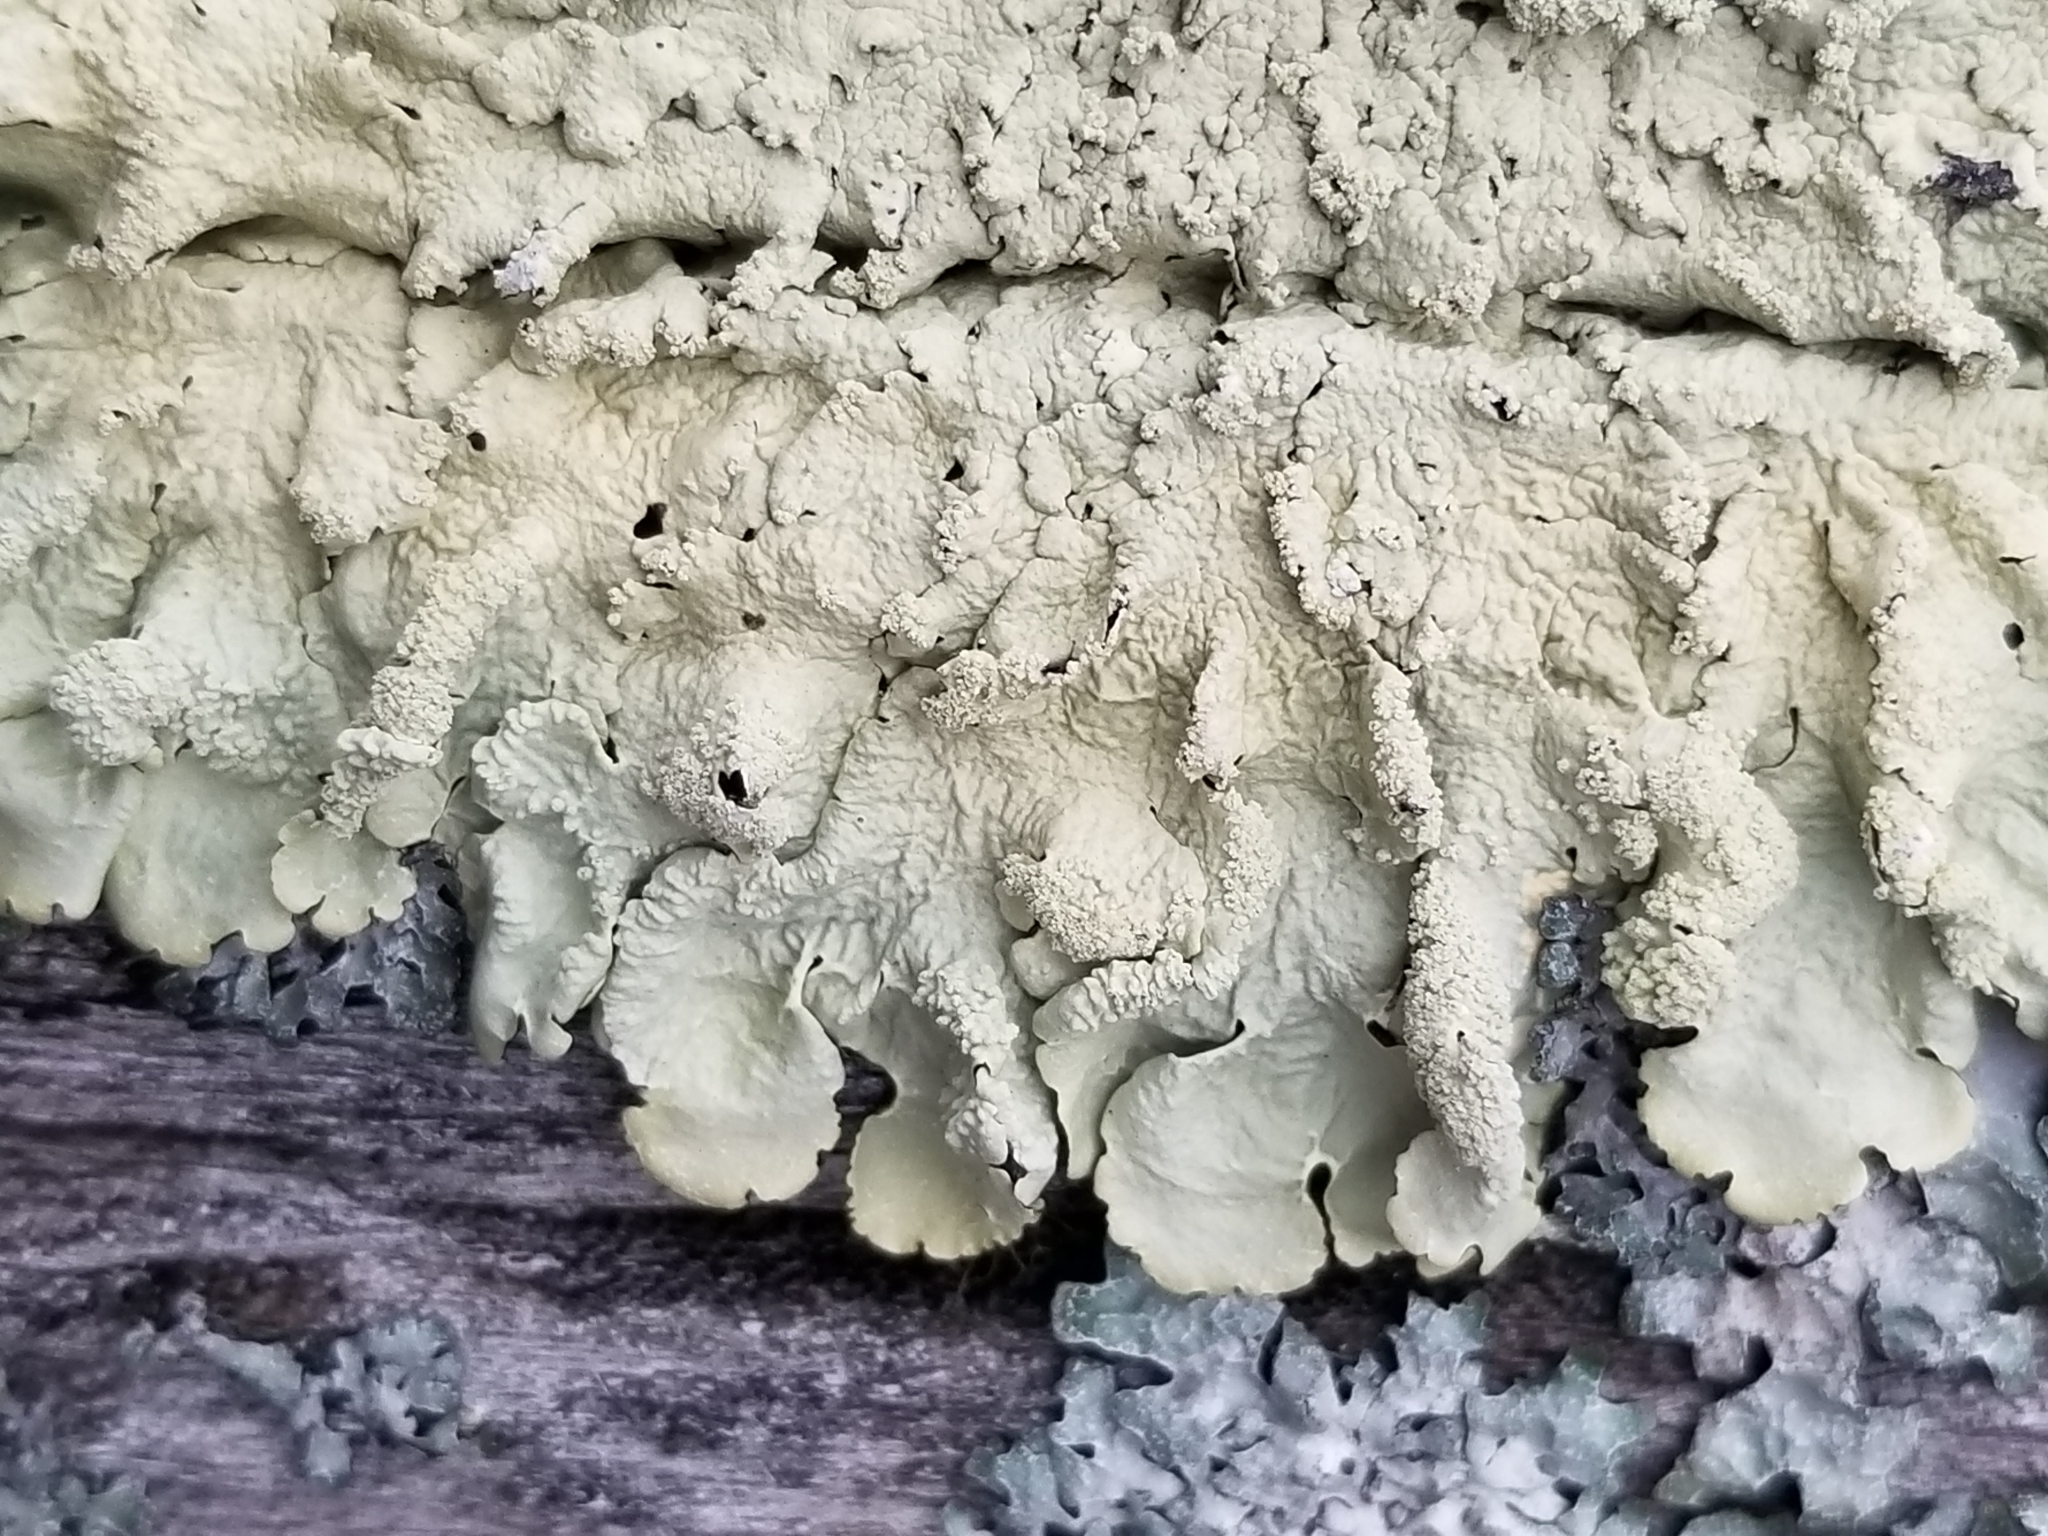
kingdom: Fungi
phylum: Ascomycota
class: Lecanoromycetes
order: Lecanorales
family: Parmeliaceae
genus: Flavoparmelia
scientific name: Flavoparmelia caperata
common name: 40-mile per hour lichen
